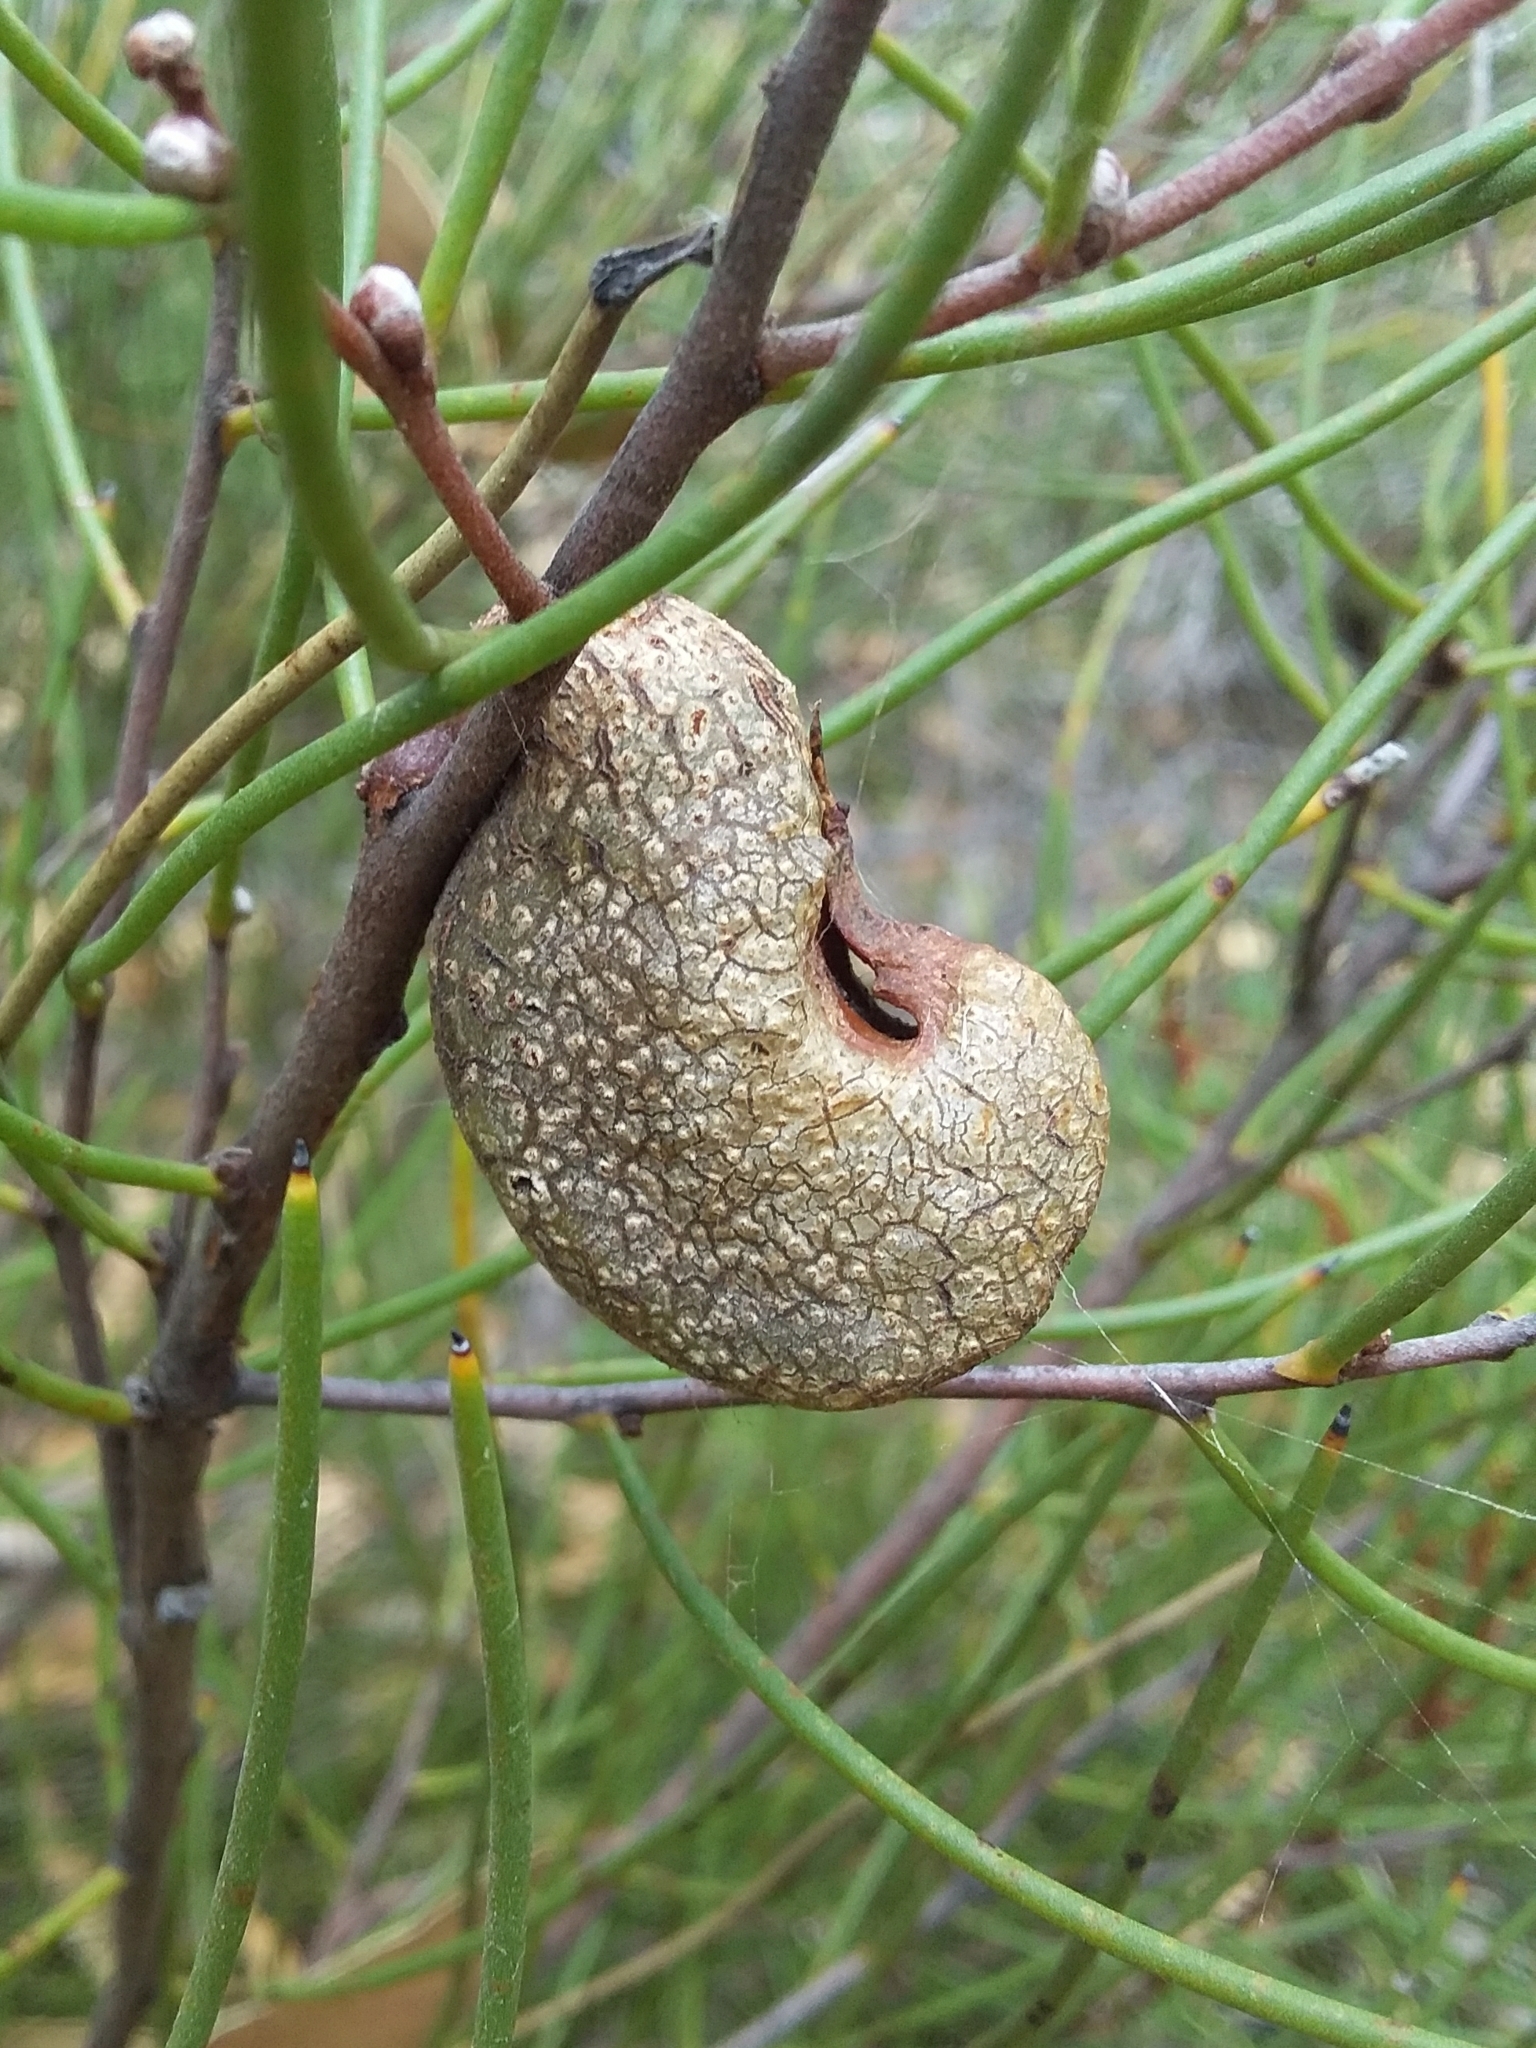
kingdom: Plantae
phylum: Tracheophyta
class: Magnoliopsida
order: Proteales
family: Proteaceae
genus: Hakea
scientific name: Hakea rostrata
